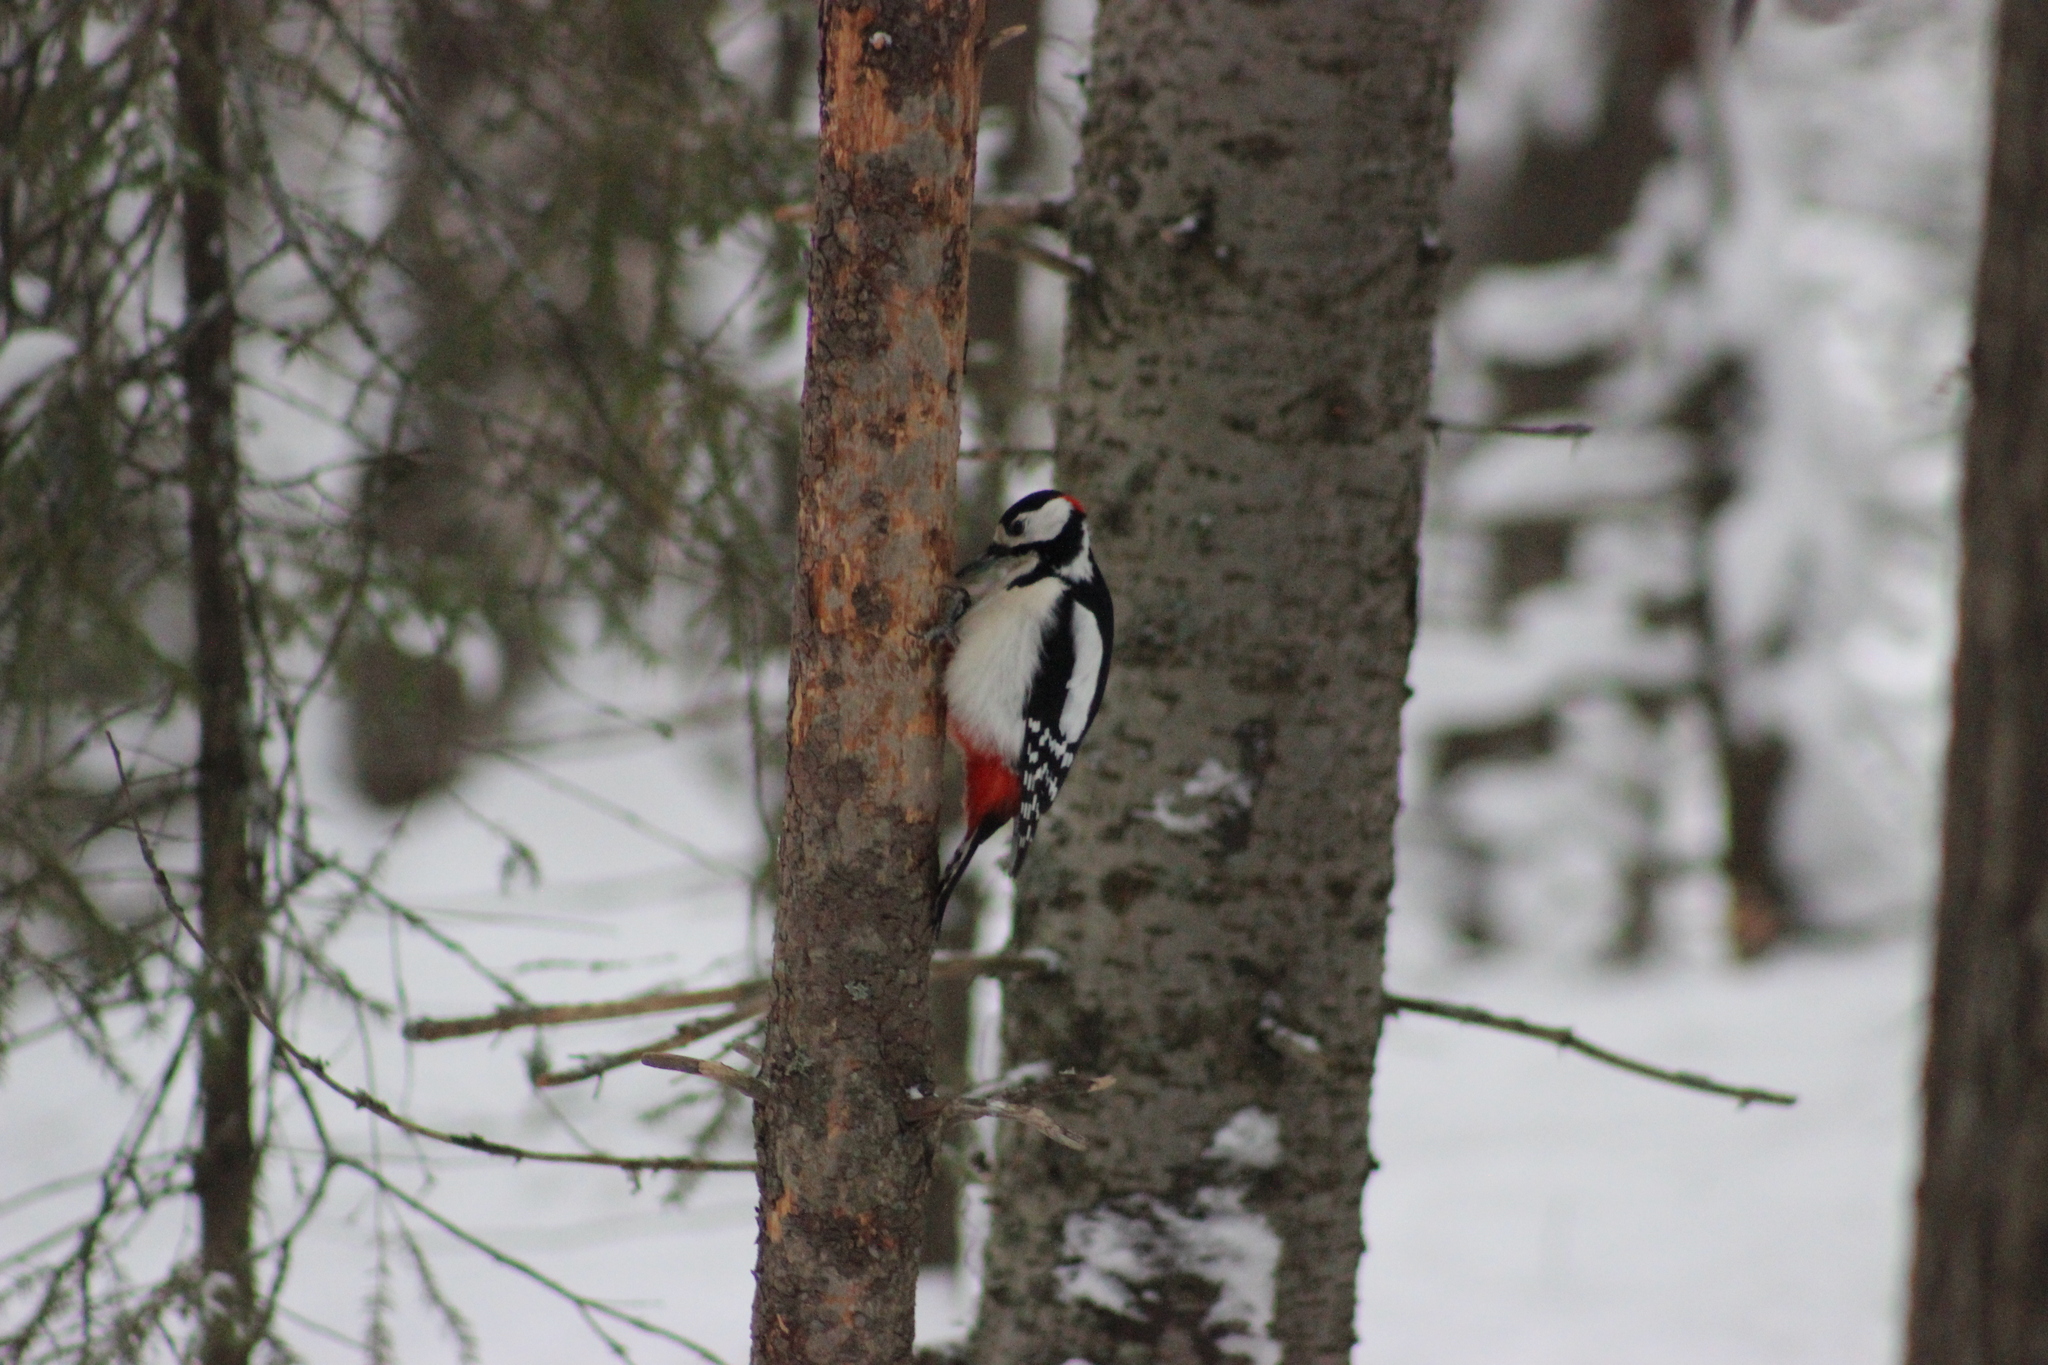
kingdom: Animalia
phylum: Chordata
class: Aves
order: Piciformes
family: Picidae
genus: Dendrocopos
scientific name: Dendrocopos major
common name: Great spotted woodpecker
